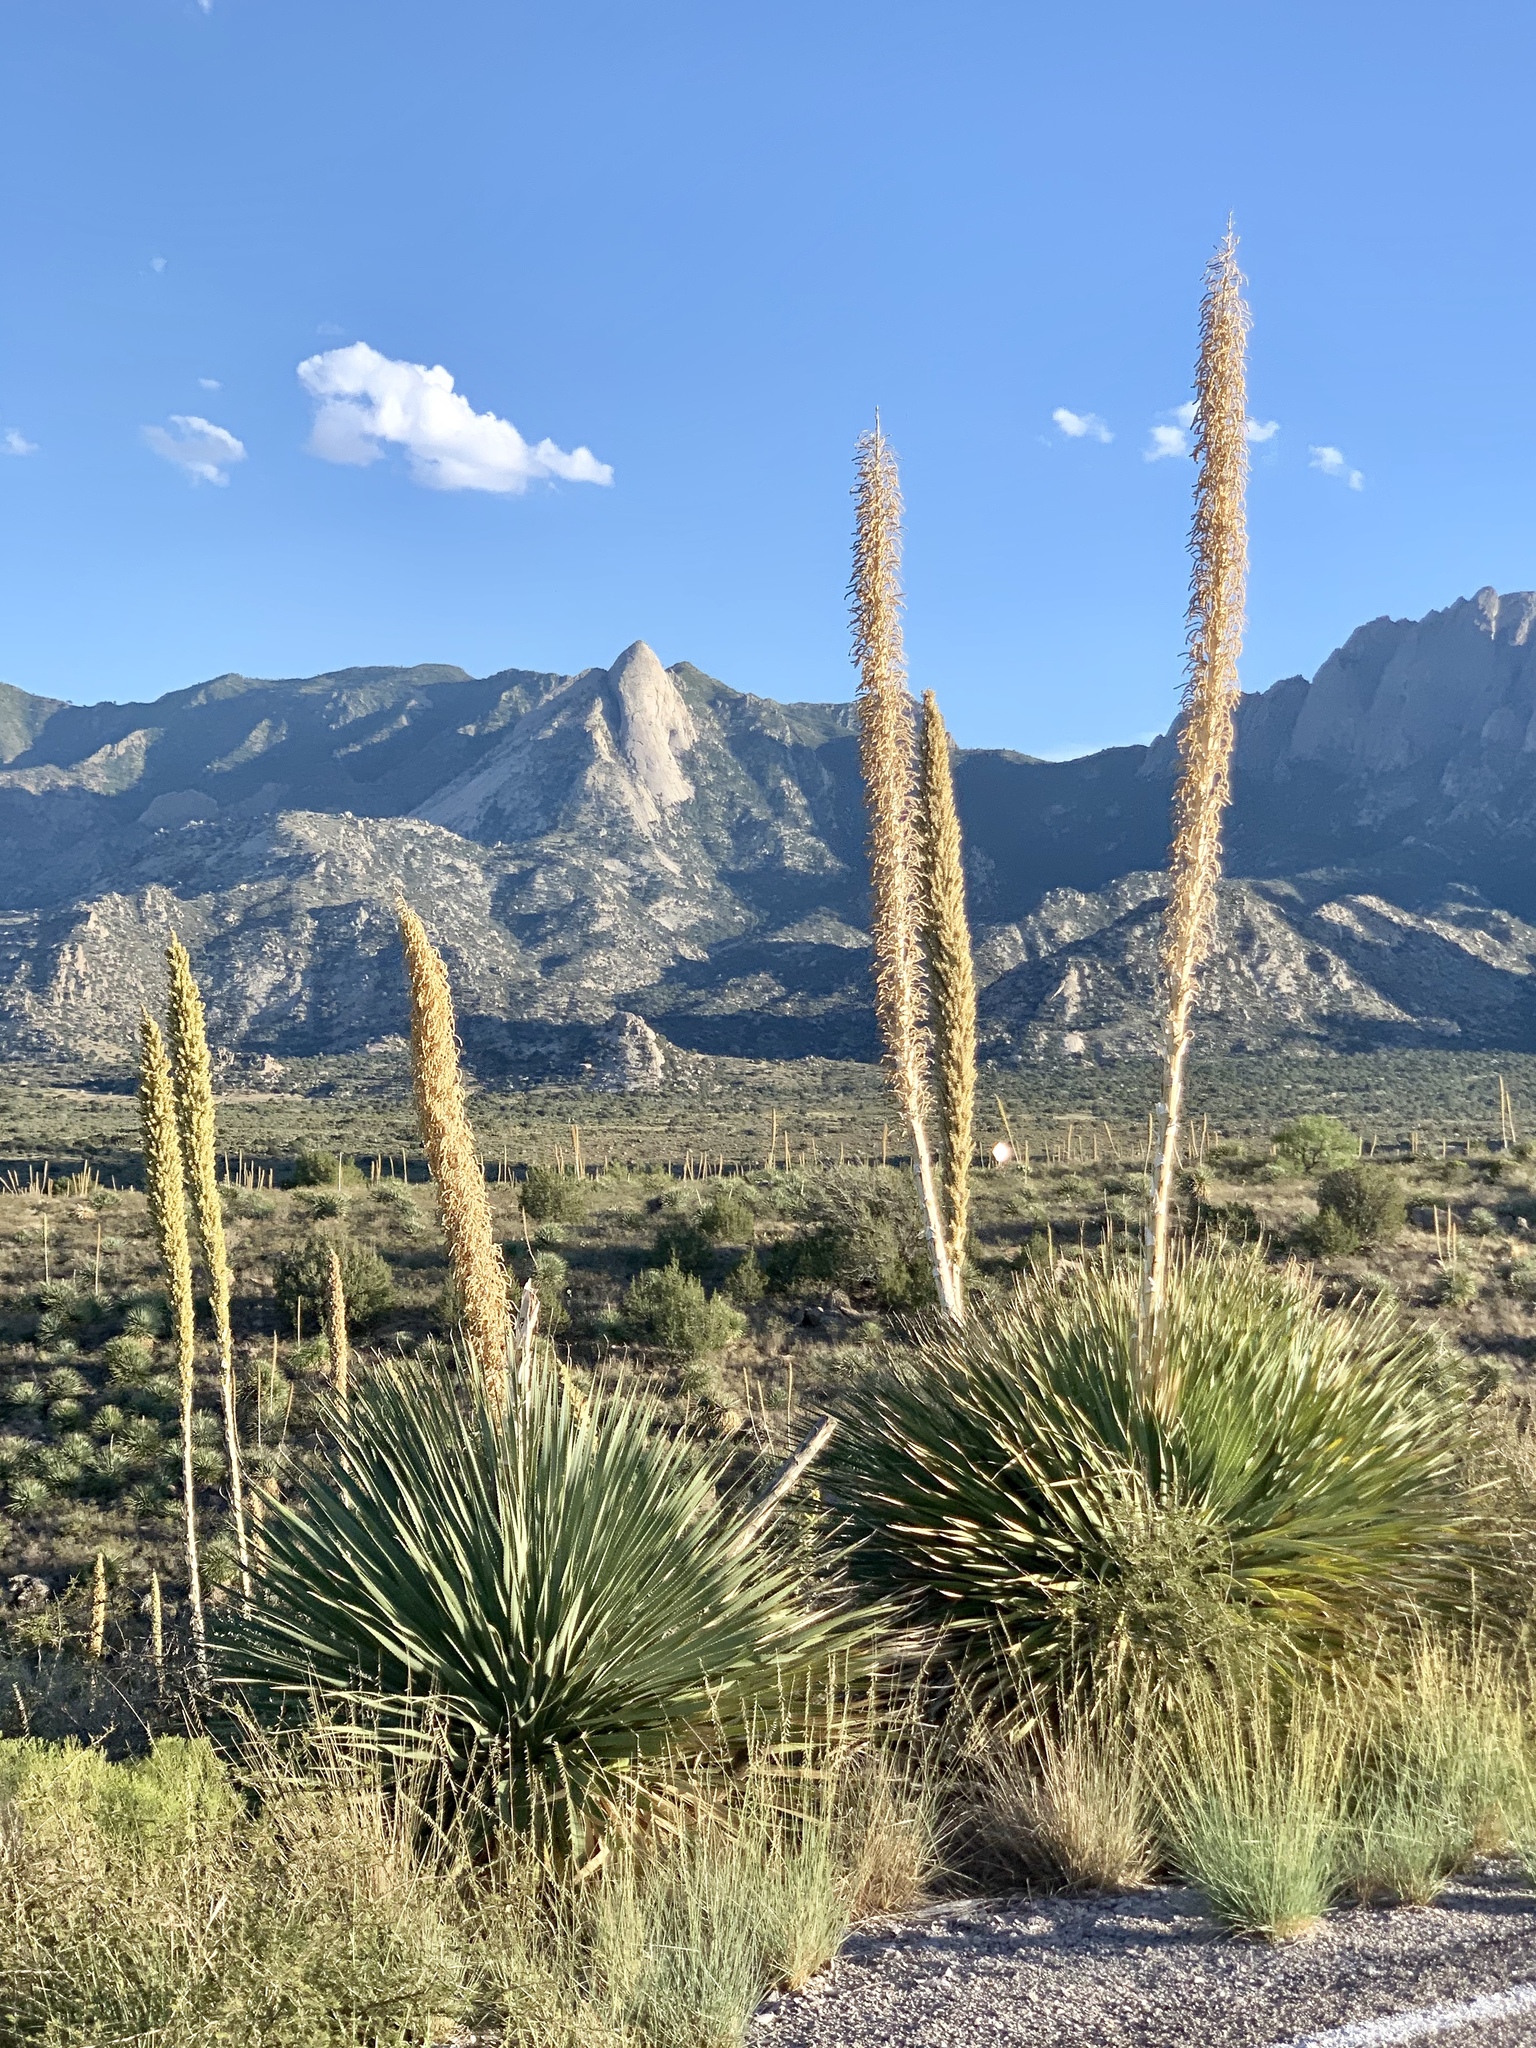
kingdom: Plantae
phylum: Tracheophyta
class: Liliopsida
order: Asparagales
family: Asparagaceae
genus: Dasylirion
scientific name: Dasylirion wheeleri
